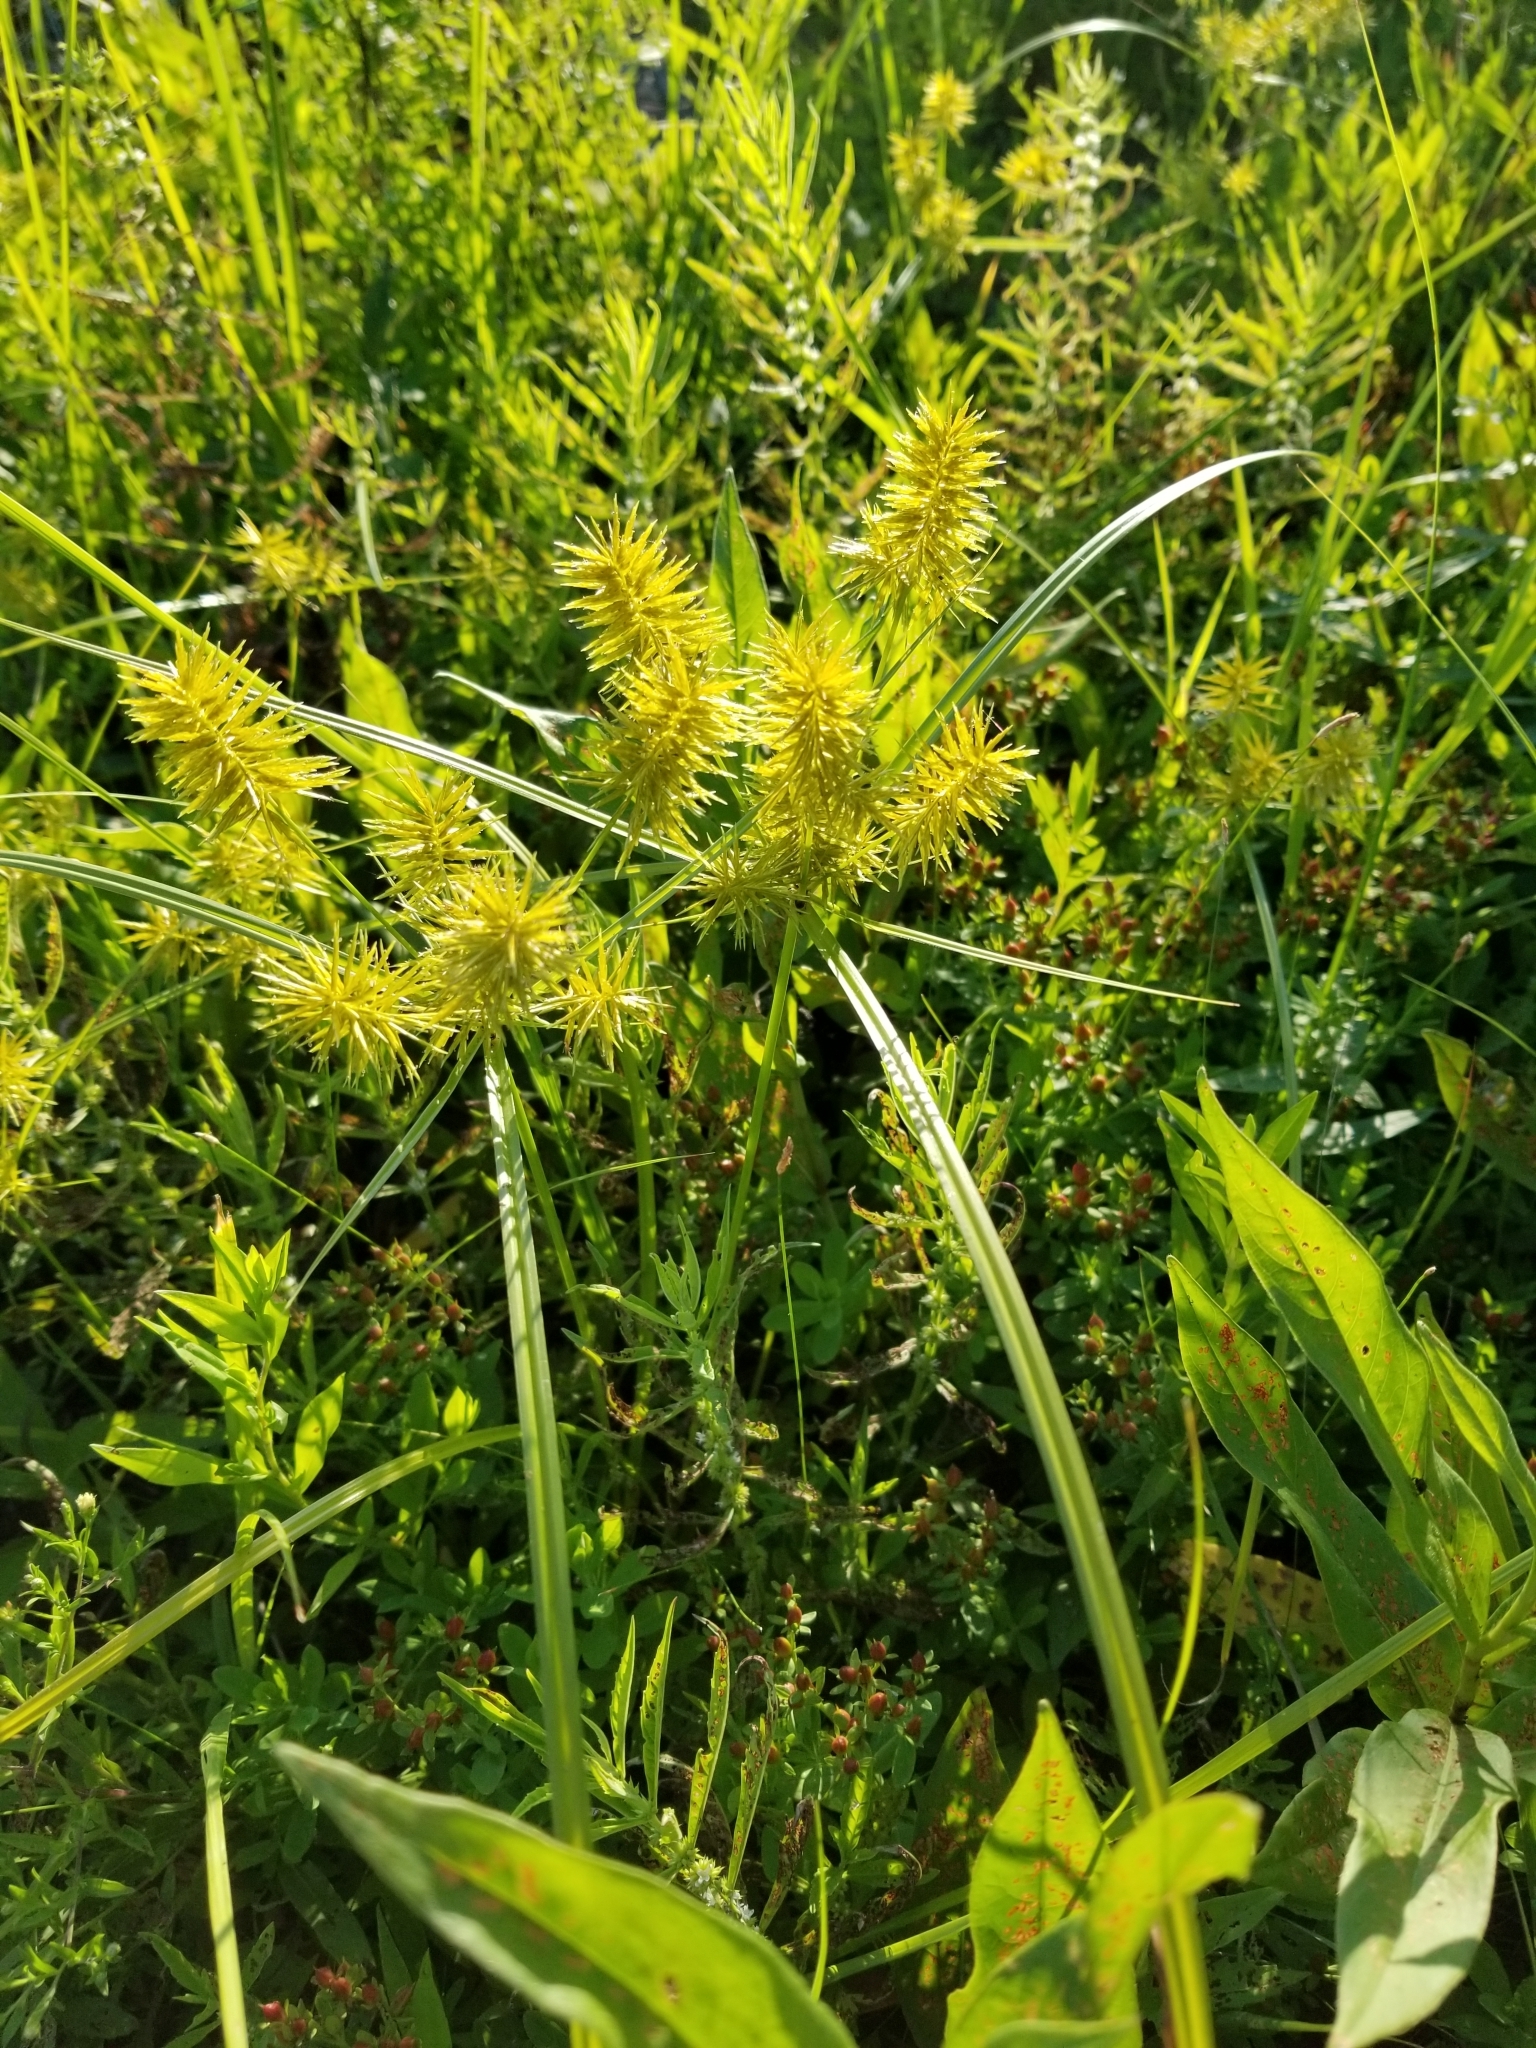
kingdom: Plantae
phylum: Tracheophyta
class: Liliopsida
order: Poales
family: Cyperaceae
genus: Cyperus
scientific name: Cyperus strigosus
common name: False nutsedge
